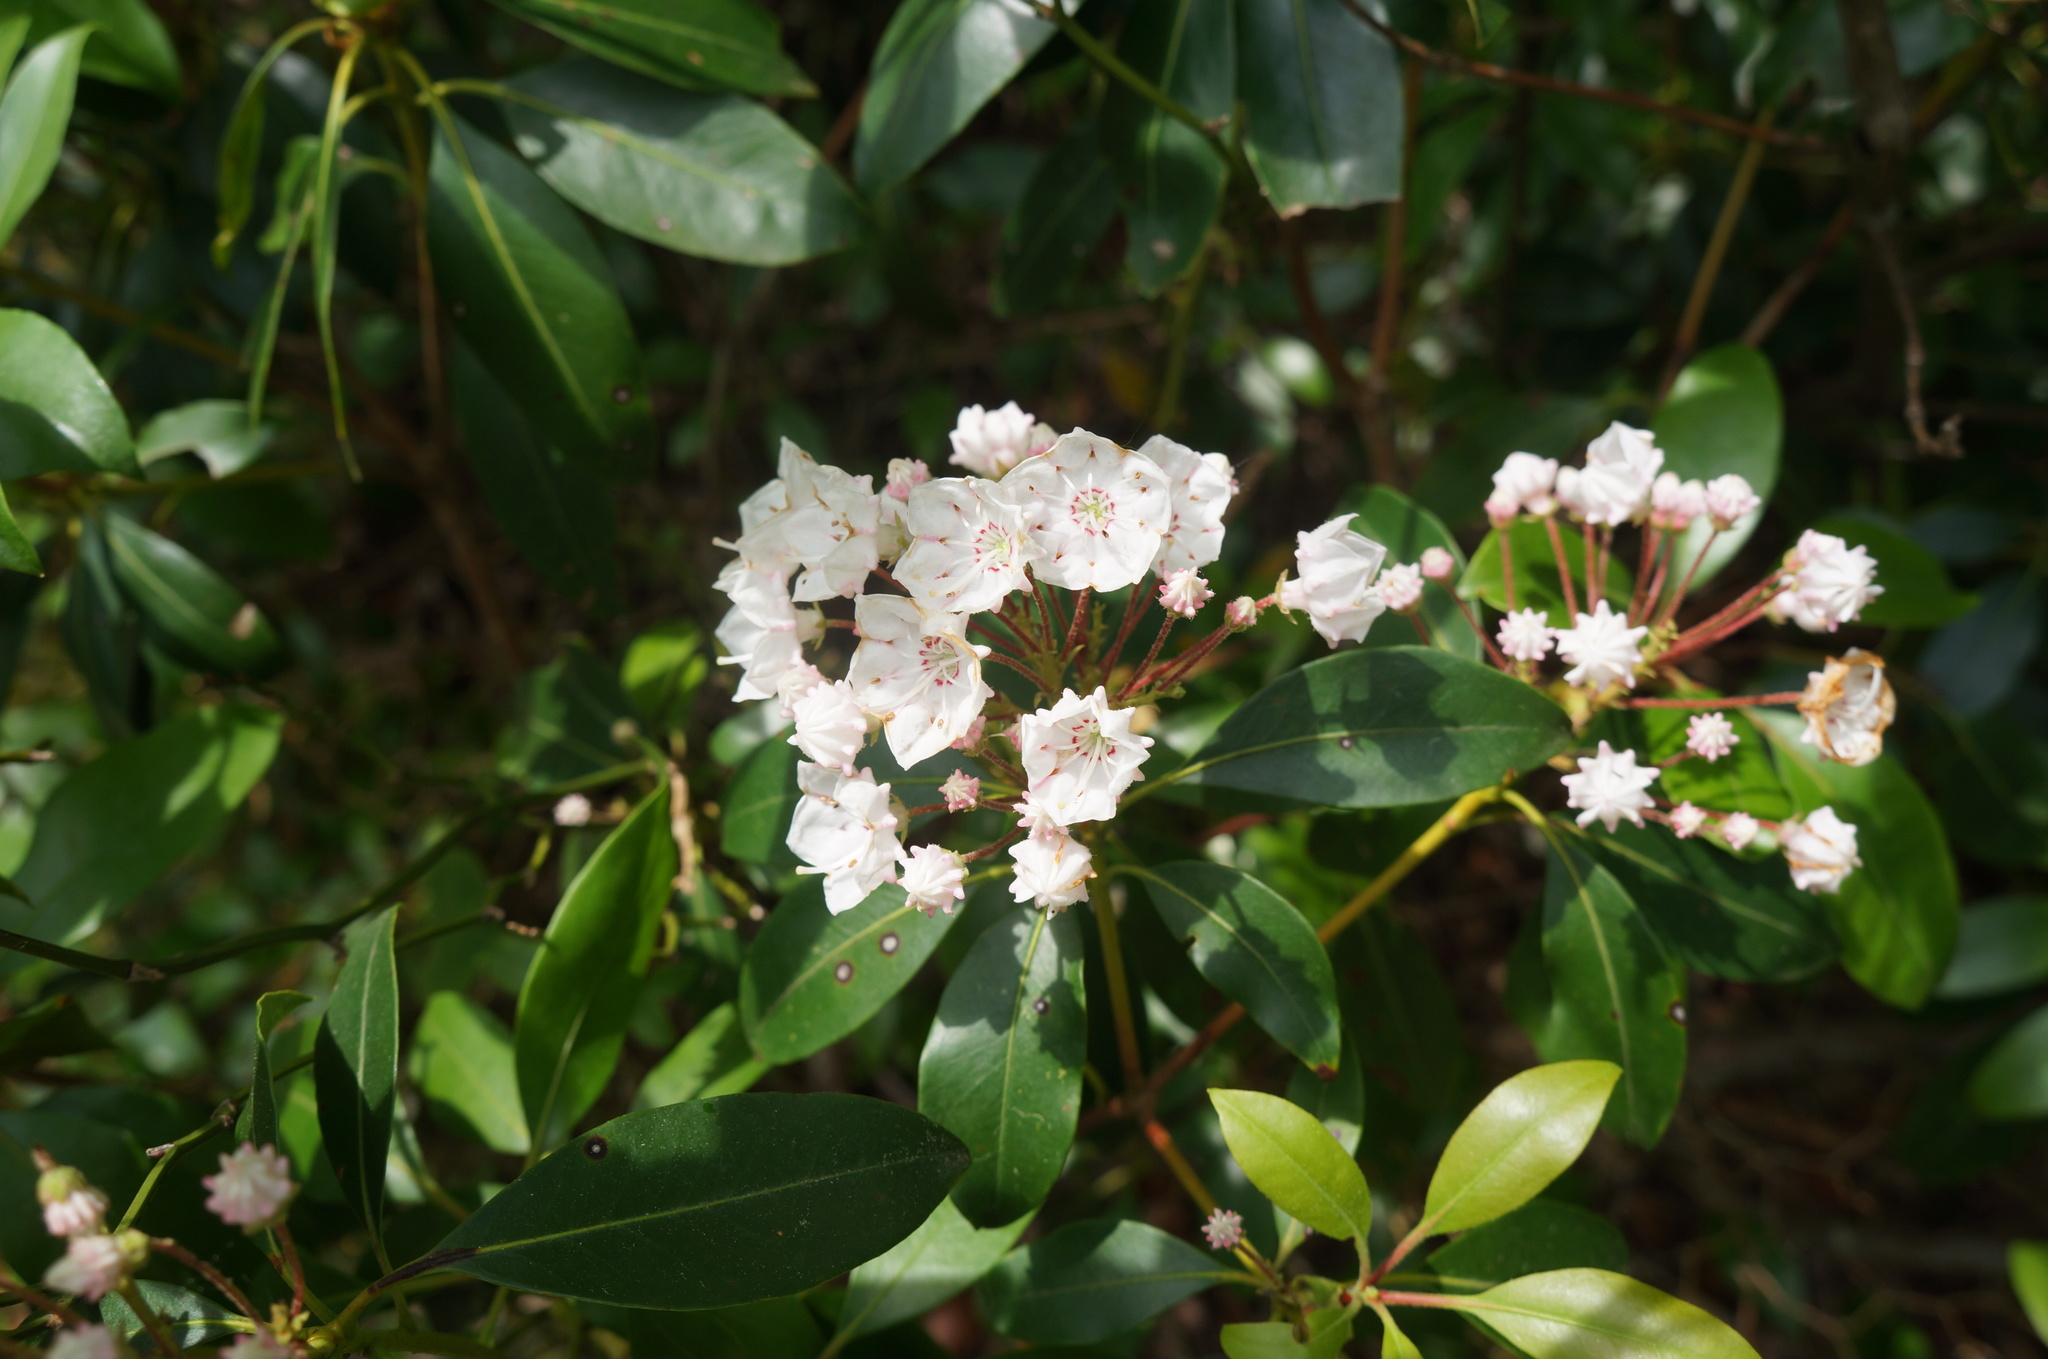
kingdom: Plantae
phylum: Tracheophyta
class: Magnoliopsida
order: Ericales
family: Ericaceae
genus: Kalmia
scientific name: Kalmia latifolia
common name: Mountain-laurel
